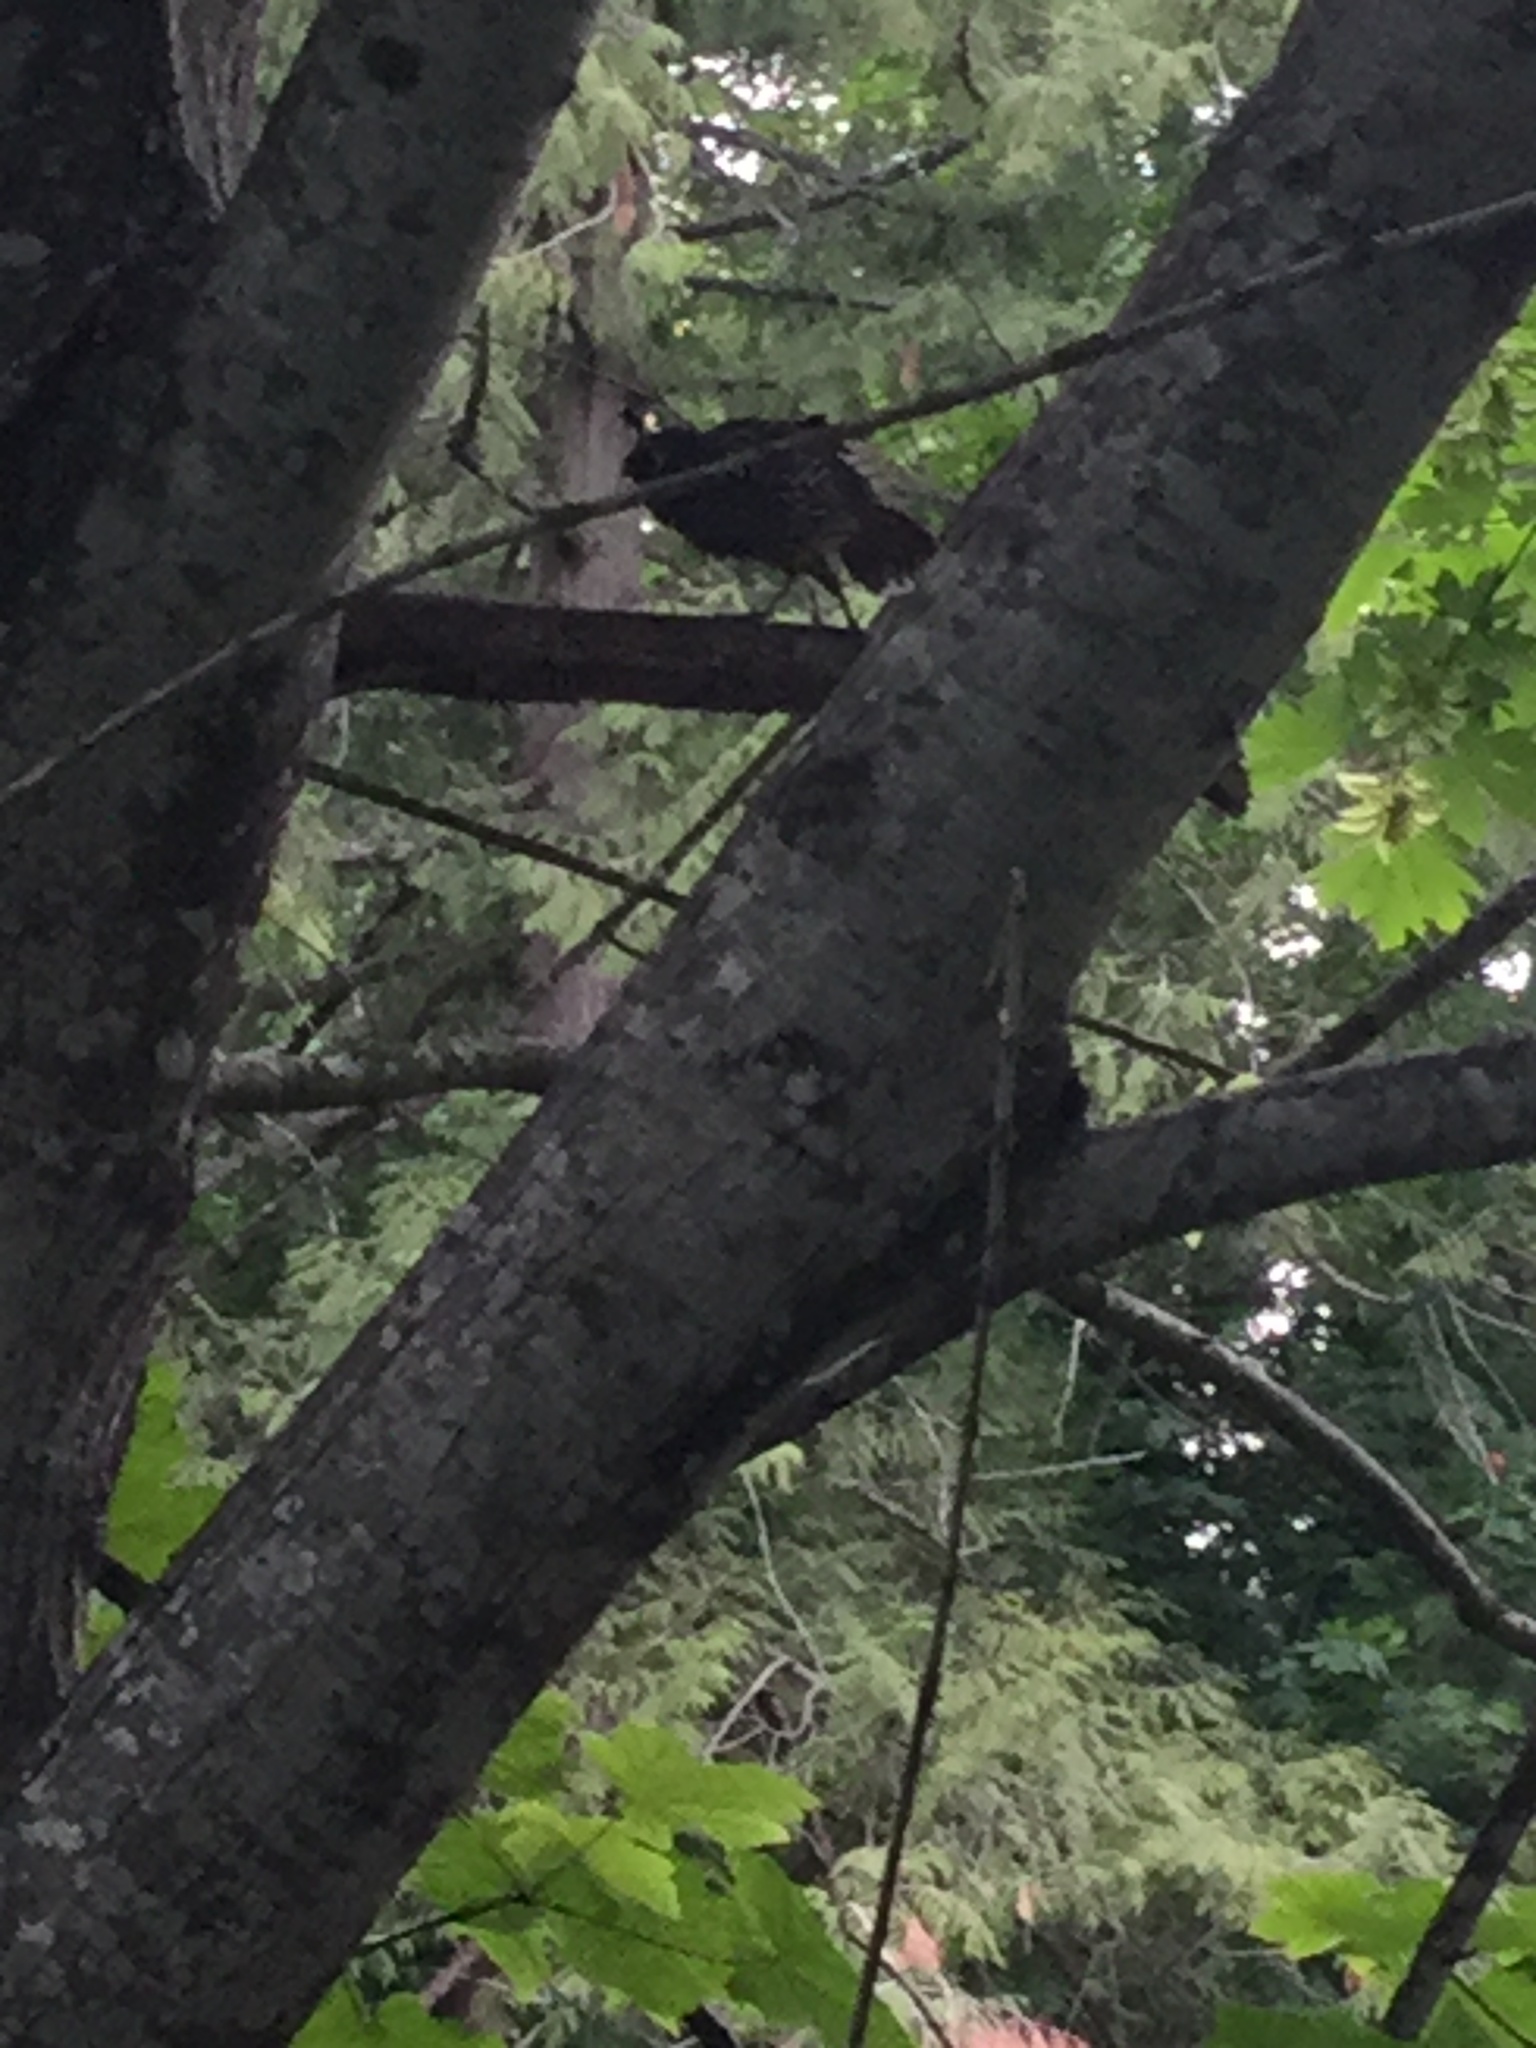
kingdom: Animalia
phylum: Chordata
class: Aves
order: Galliformes
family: Odontophoridae
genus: Callipepla
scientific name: Callipepla californica
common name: California quail
